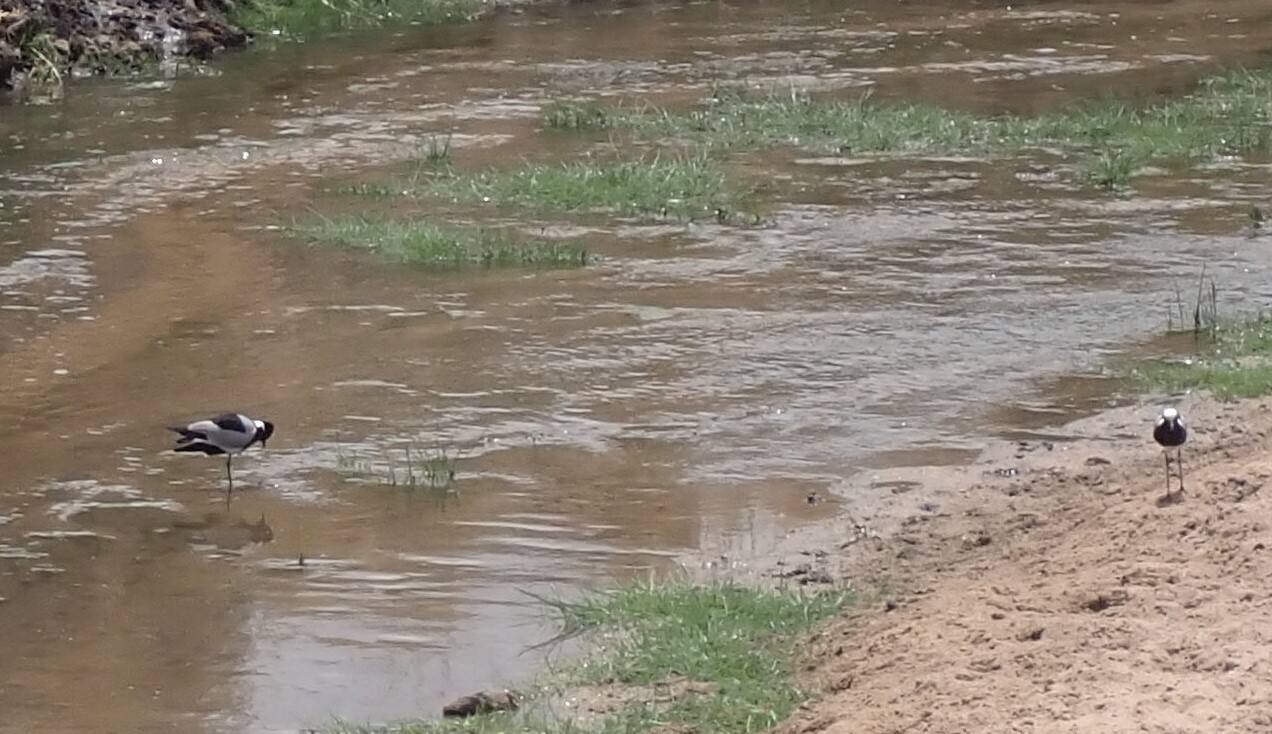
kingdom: Animalia
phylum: Chordata
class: Aves
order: Charadriiformes
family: Charadriidae
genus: Vanellus
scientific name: Vanellus armatus
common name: Blacksmith lapwing
